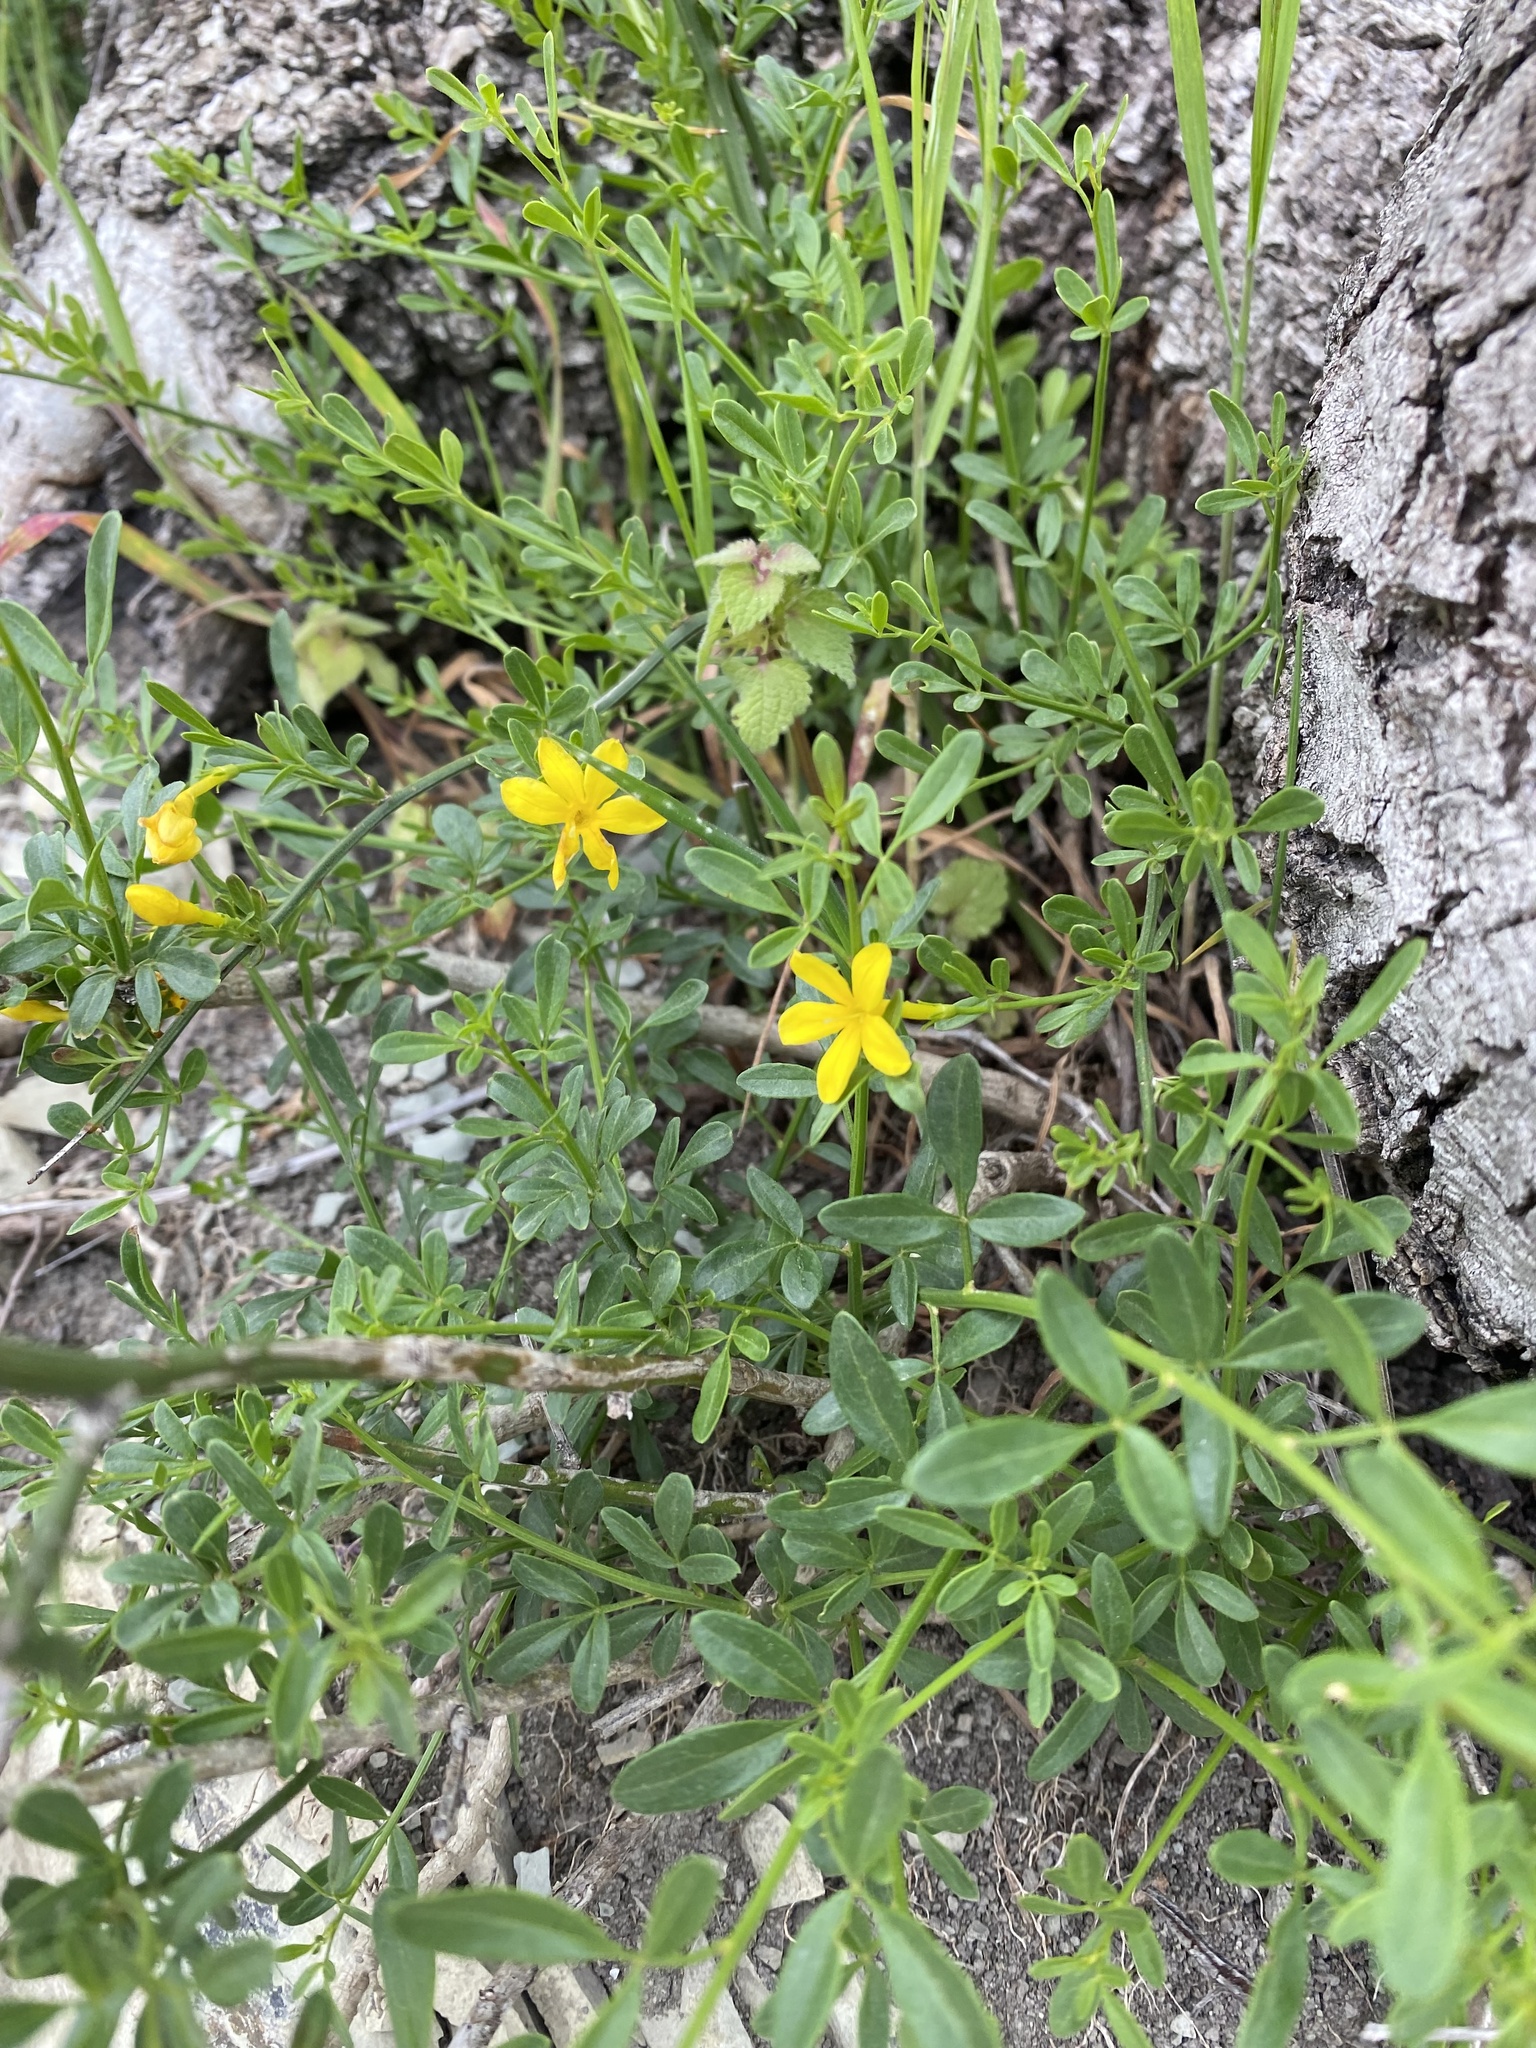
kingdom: Plantae
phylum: Tracheophyta
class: Magnoliopsida
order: Lamiales
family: Oleaceae
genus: Chrysojasminum
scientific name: Chrysojasminum fruticans
